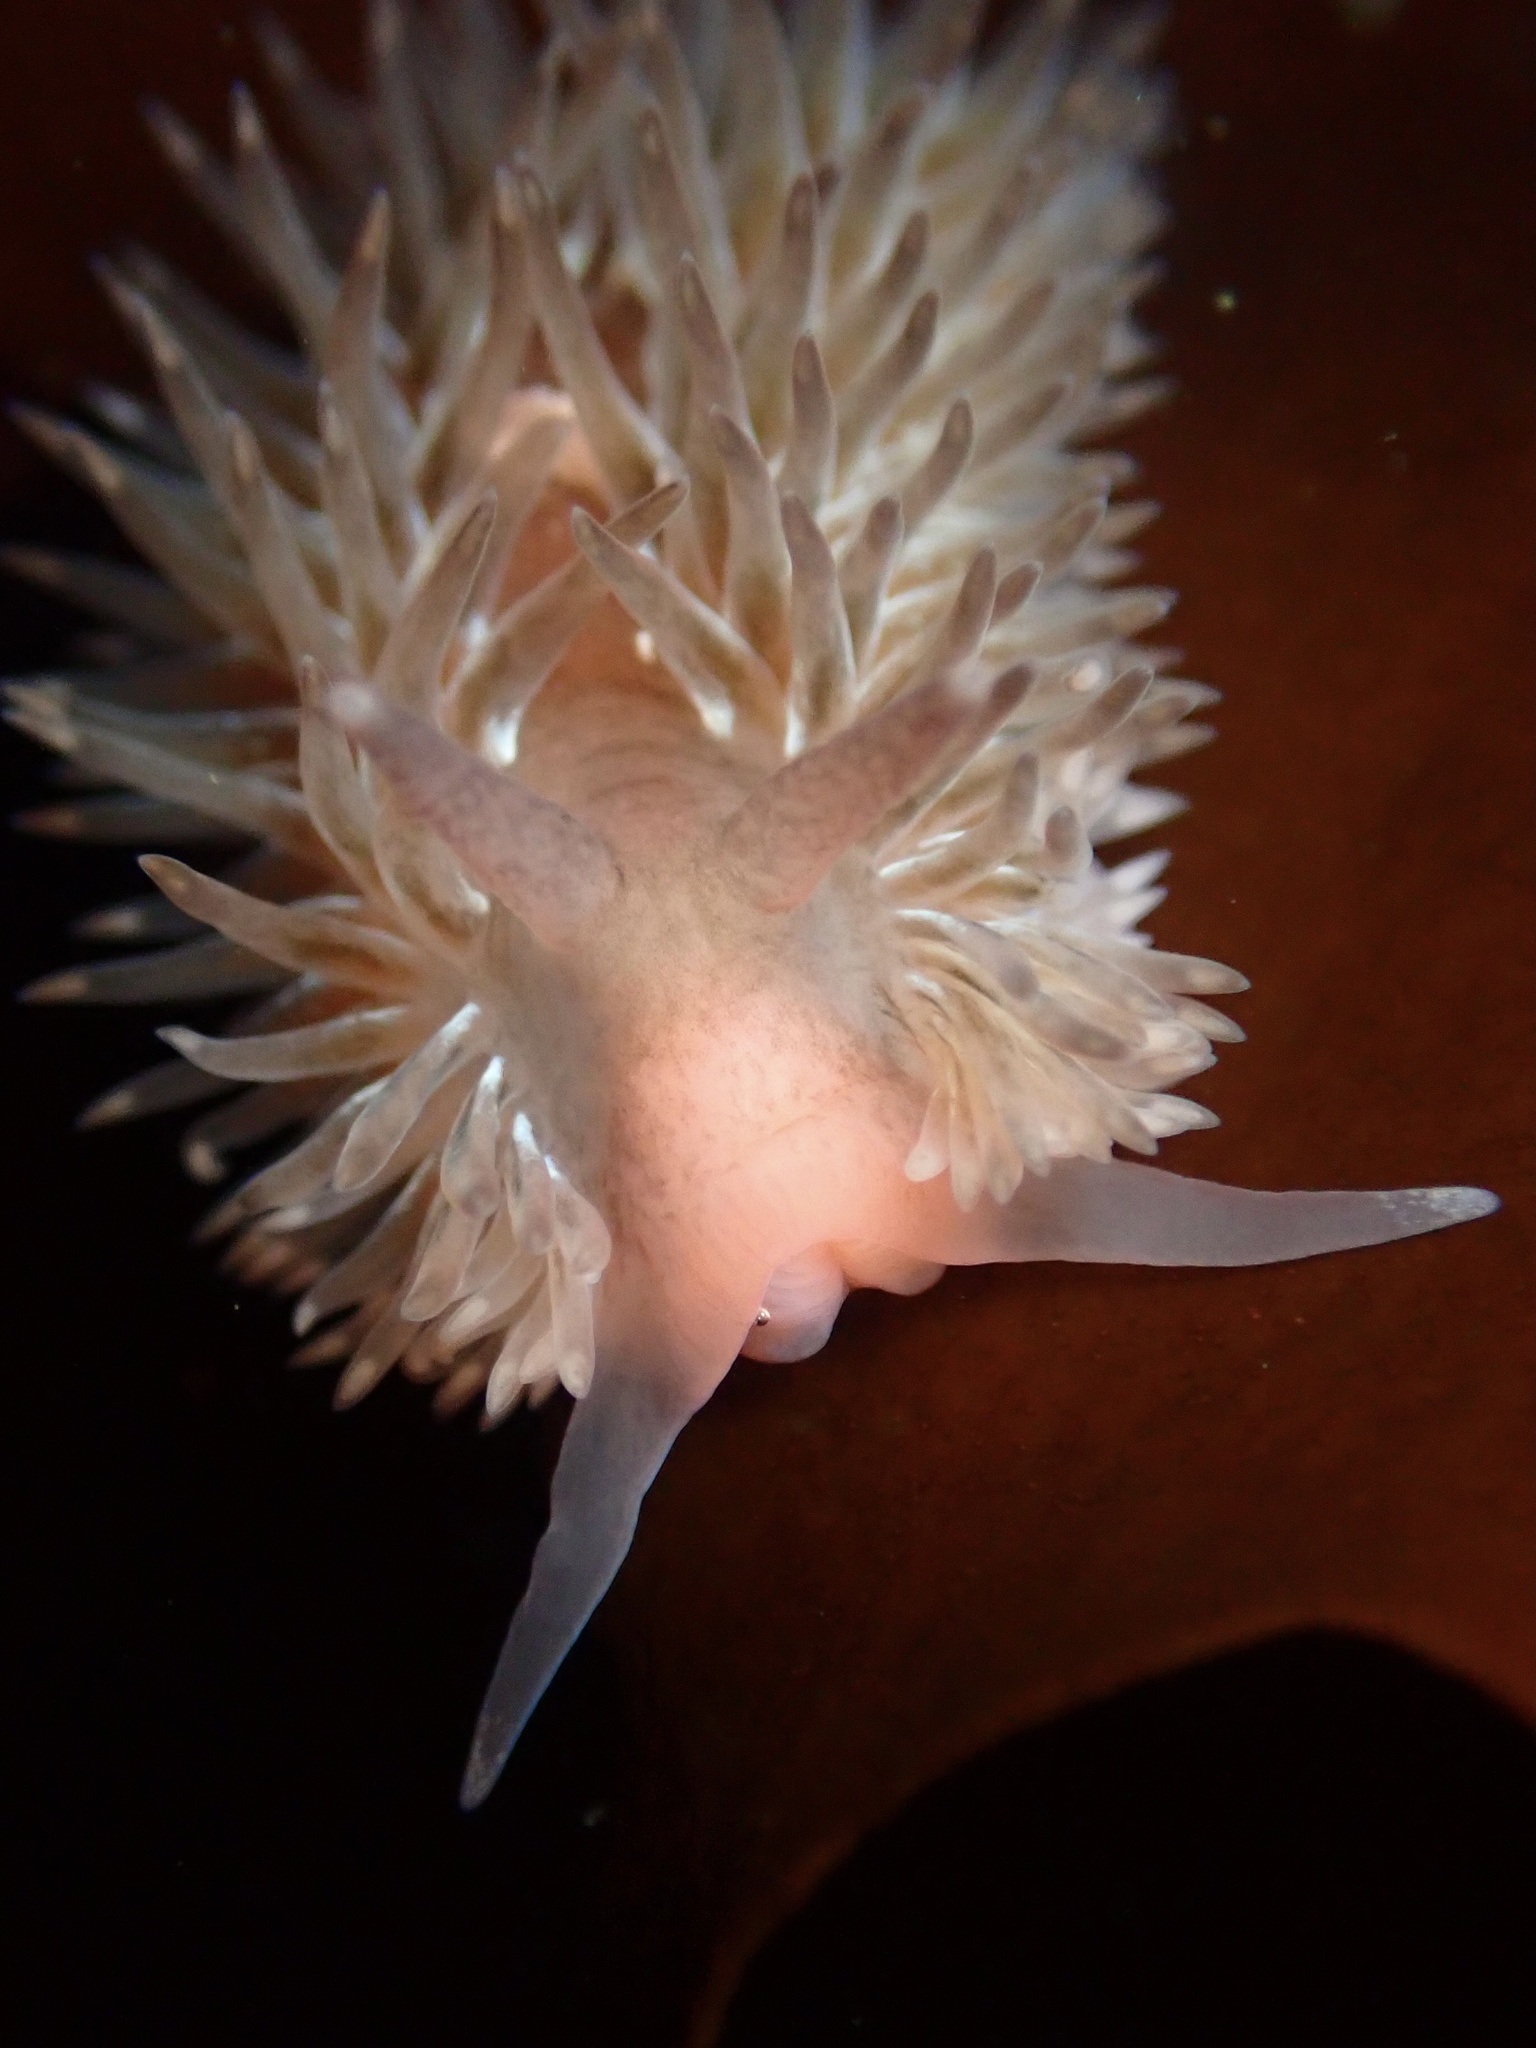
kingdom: Animalia
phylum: Mollusca
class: Gastropoda
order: Nudibranchia
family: Aeolidiidae
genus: Aeolidia
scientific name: Aeolidia loui
